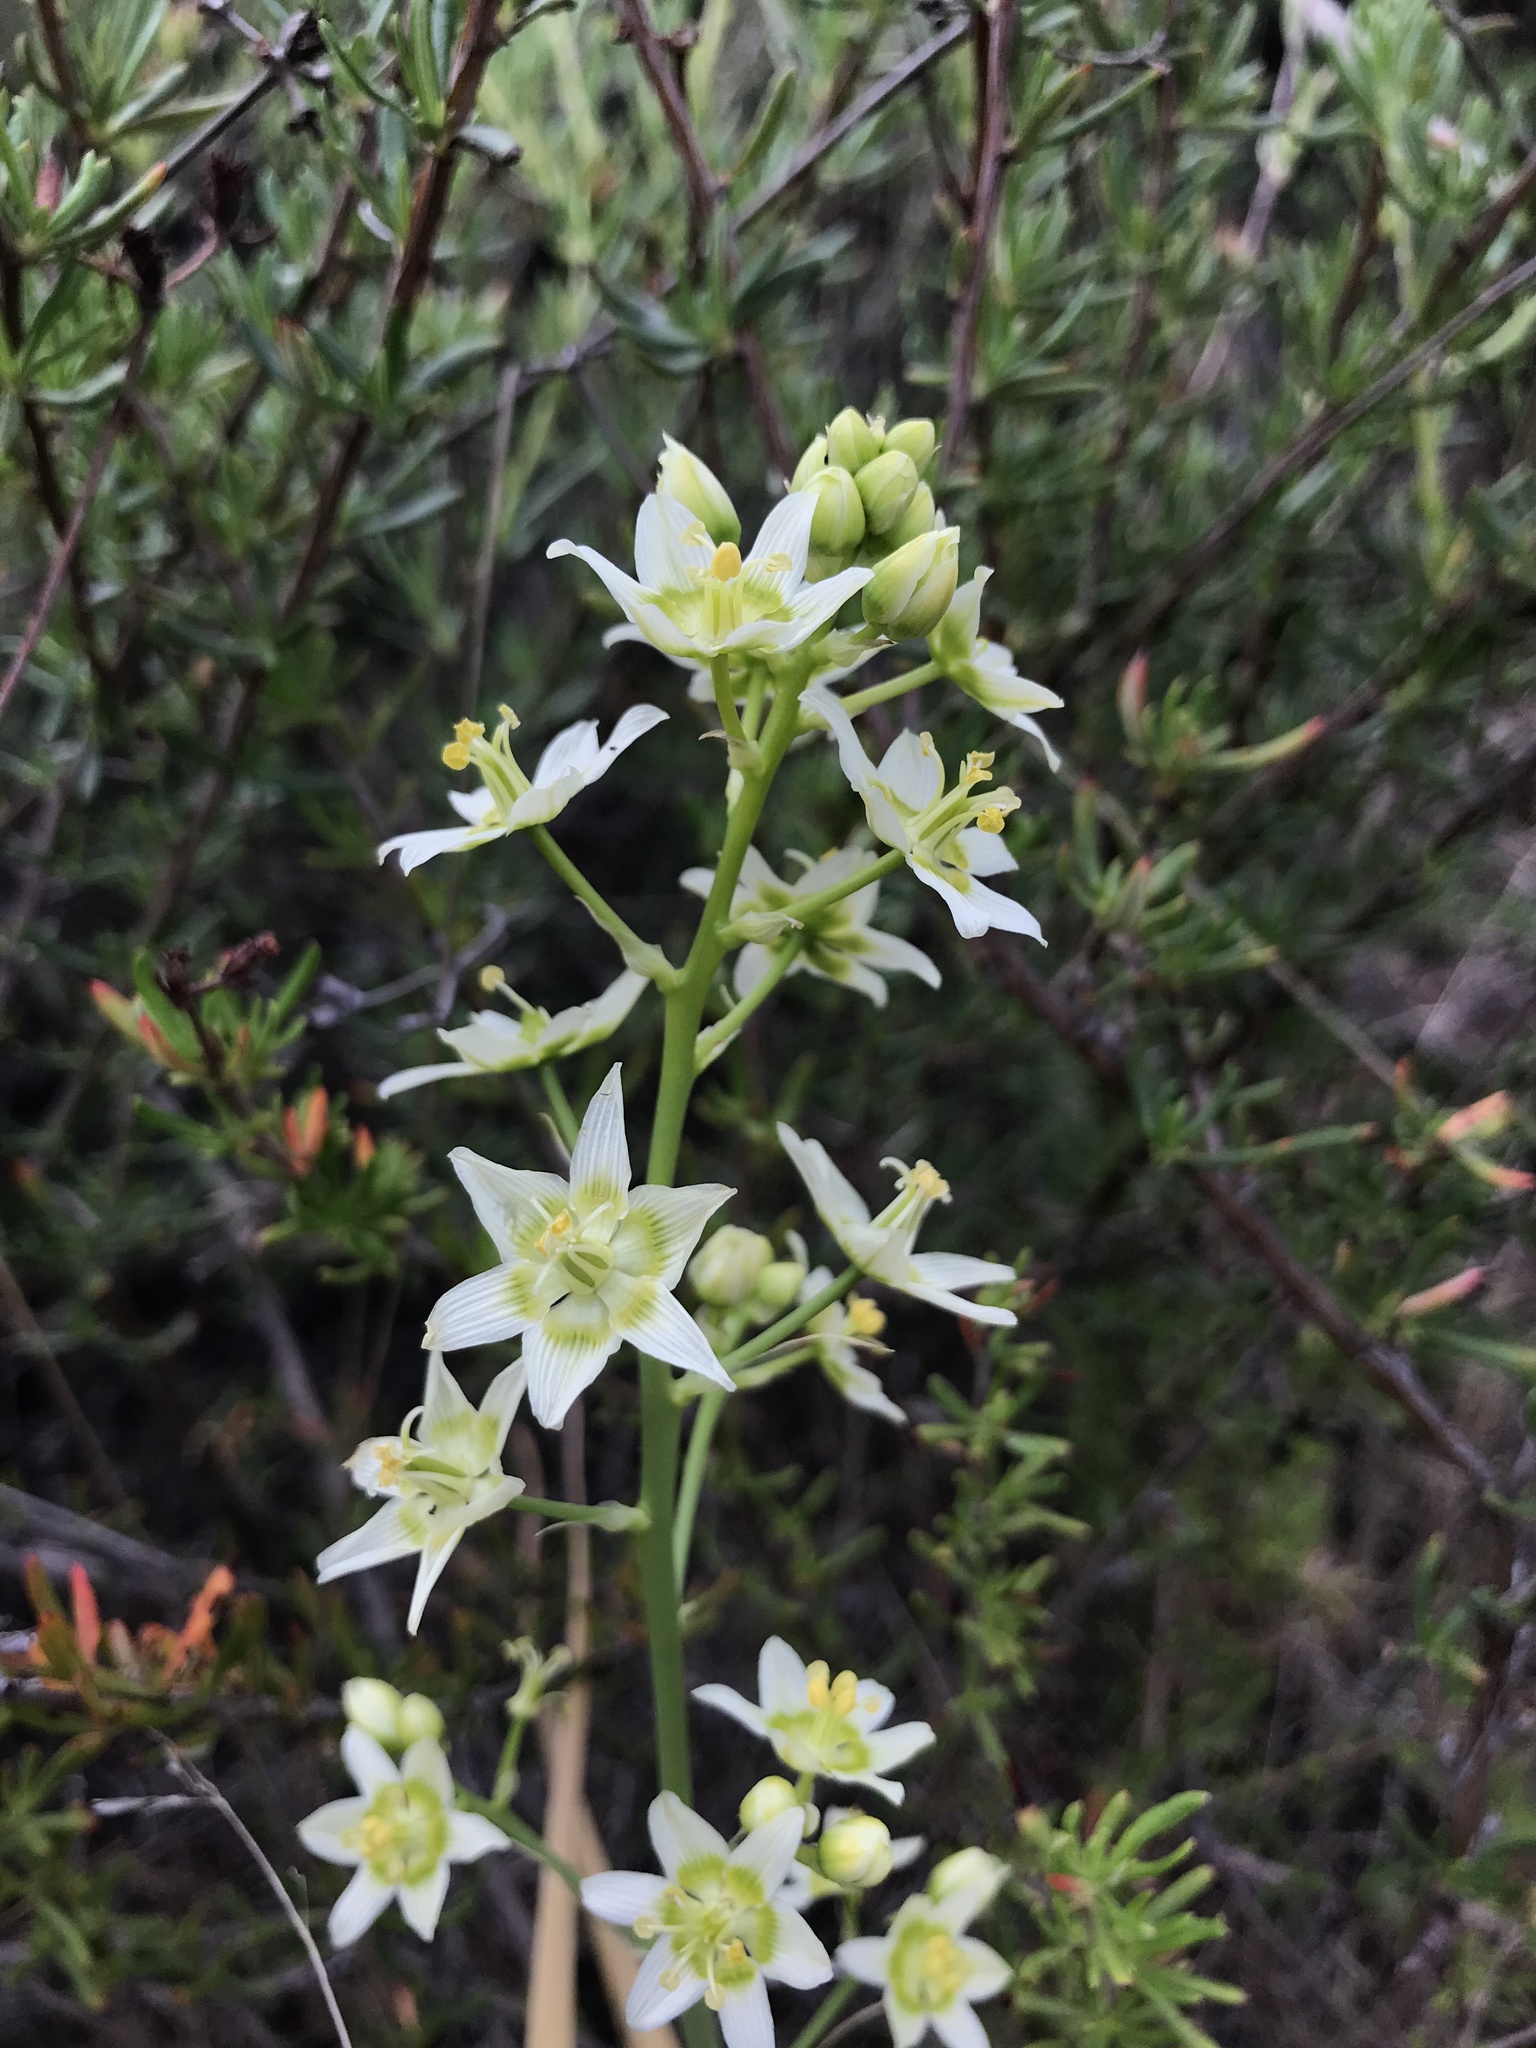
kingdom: Plantae
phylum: Tracheophyta
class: Liliopsida
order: Liliales
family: Melanthiaceae
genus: Toxicoscordion
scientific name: Toxicoscordion fremontii
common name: Fremont's death camas
